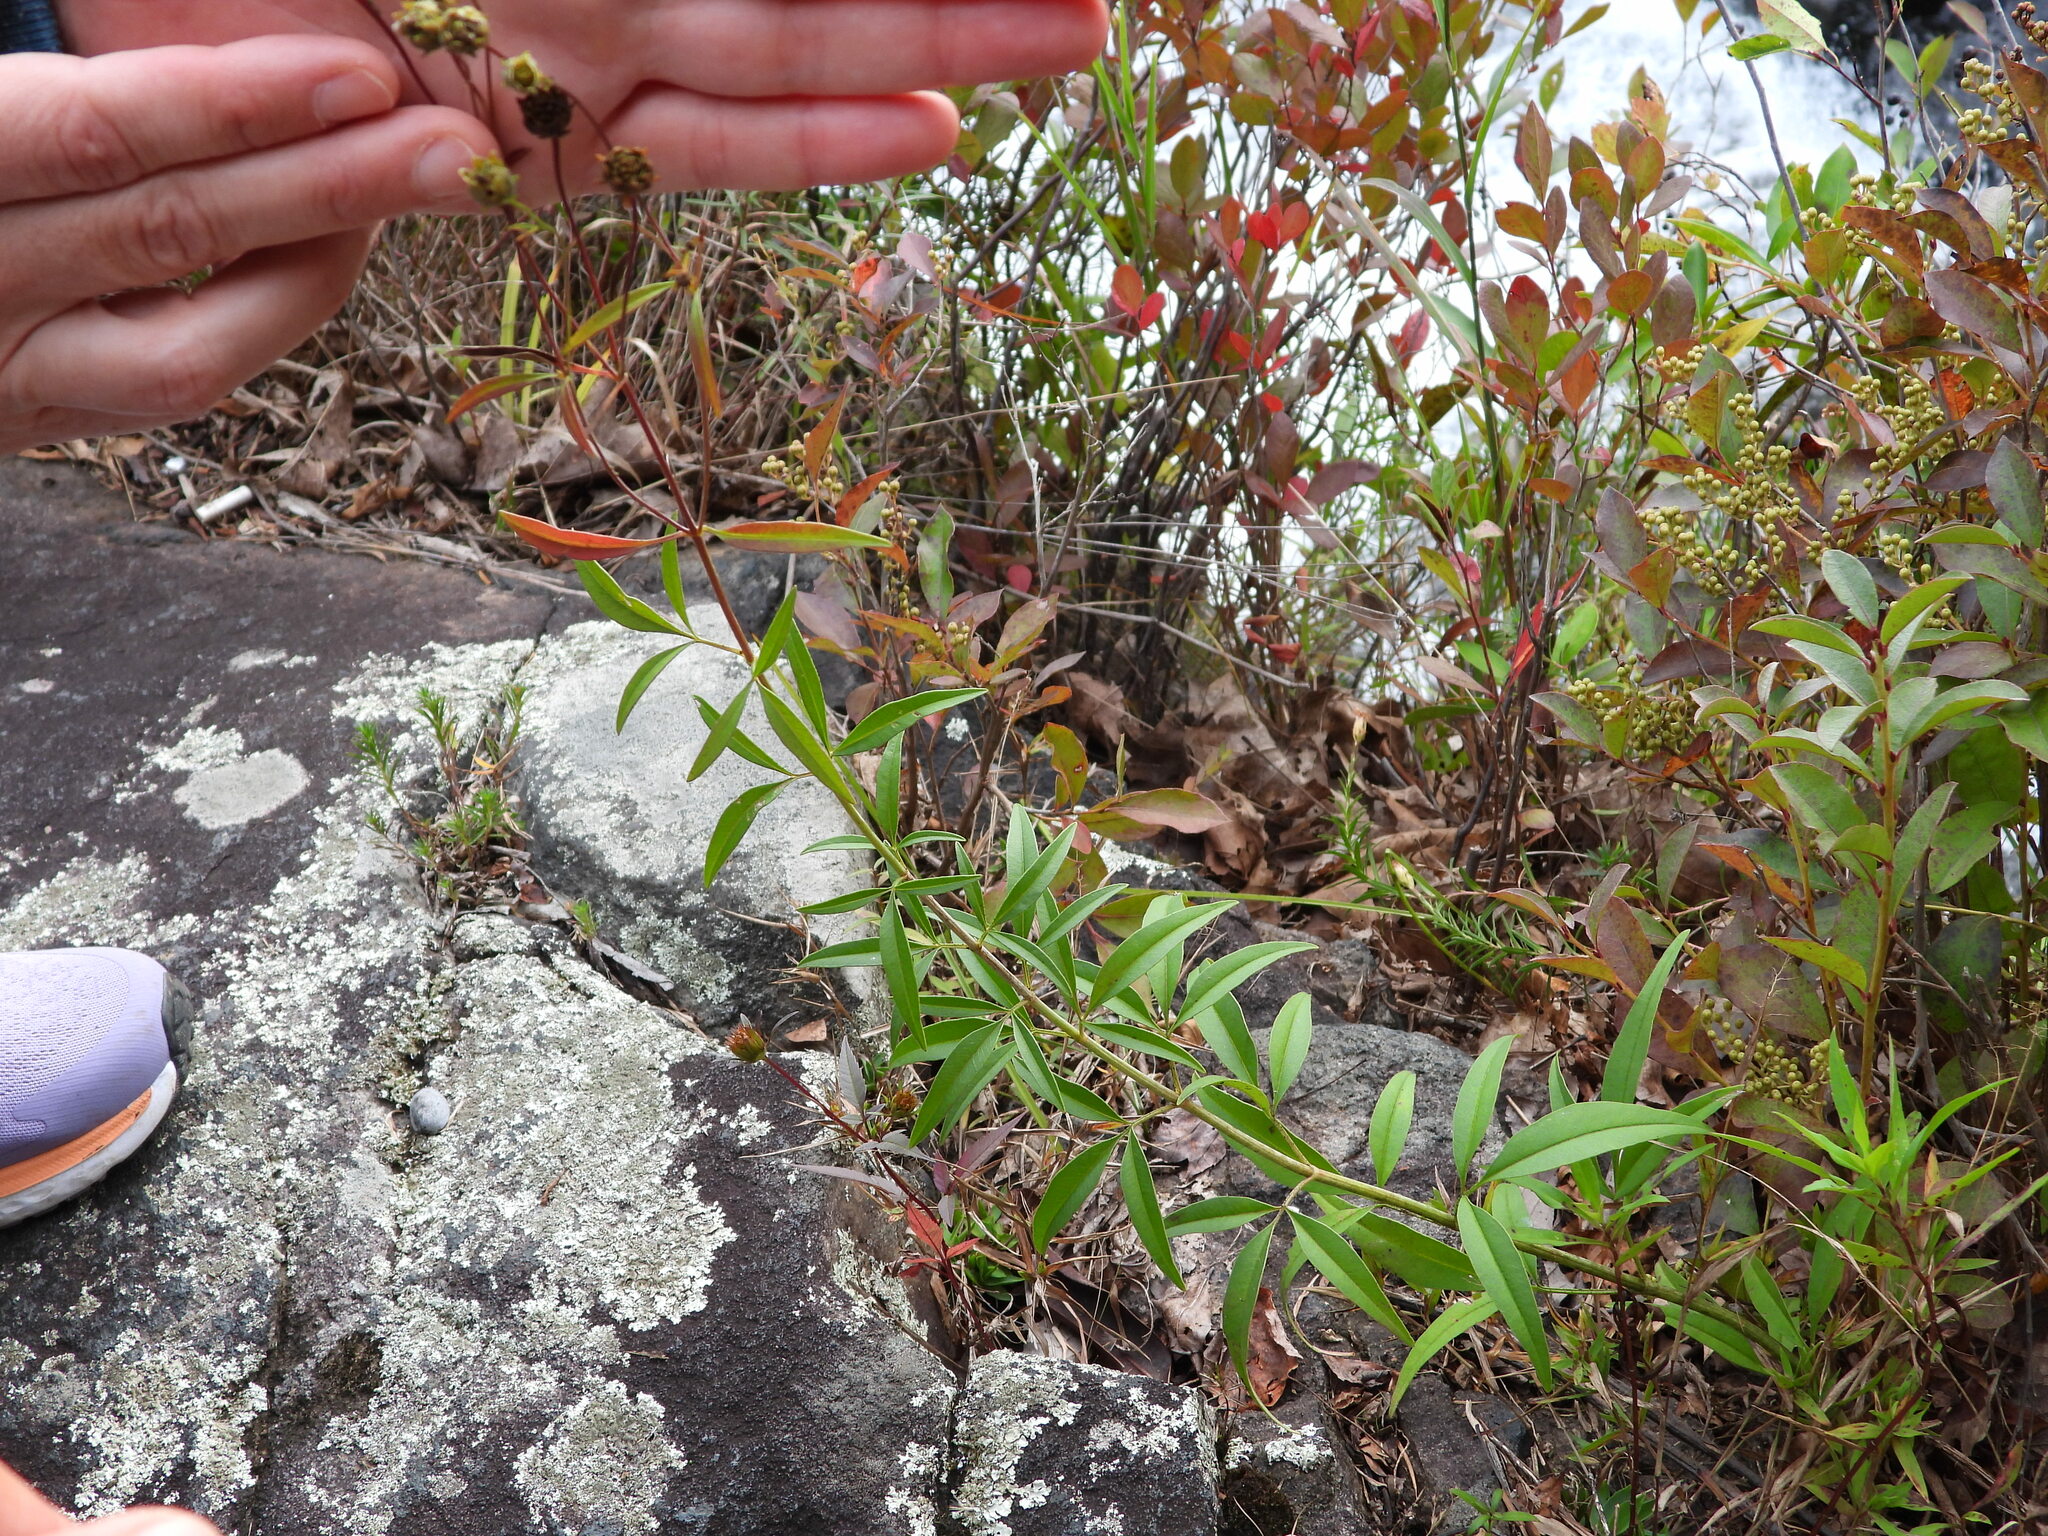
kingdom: Plantae
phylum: Tracheophyta
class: Magnoliopsida
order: Asterales
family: Asteraceae
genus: Coreopsis
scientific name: Coreopsis tripteris
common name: Tall coreopsis
